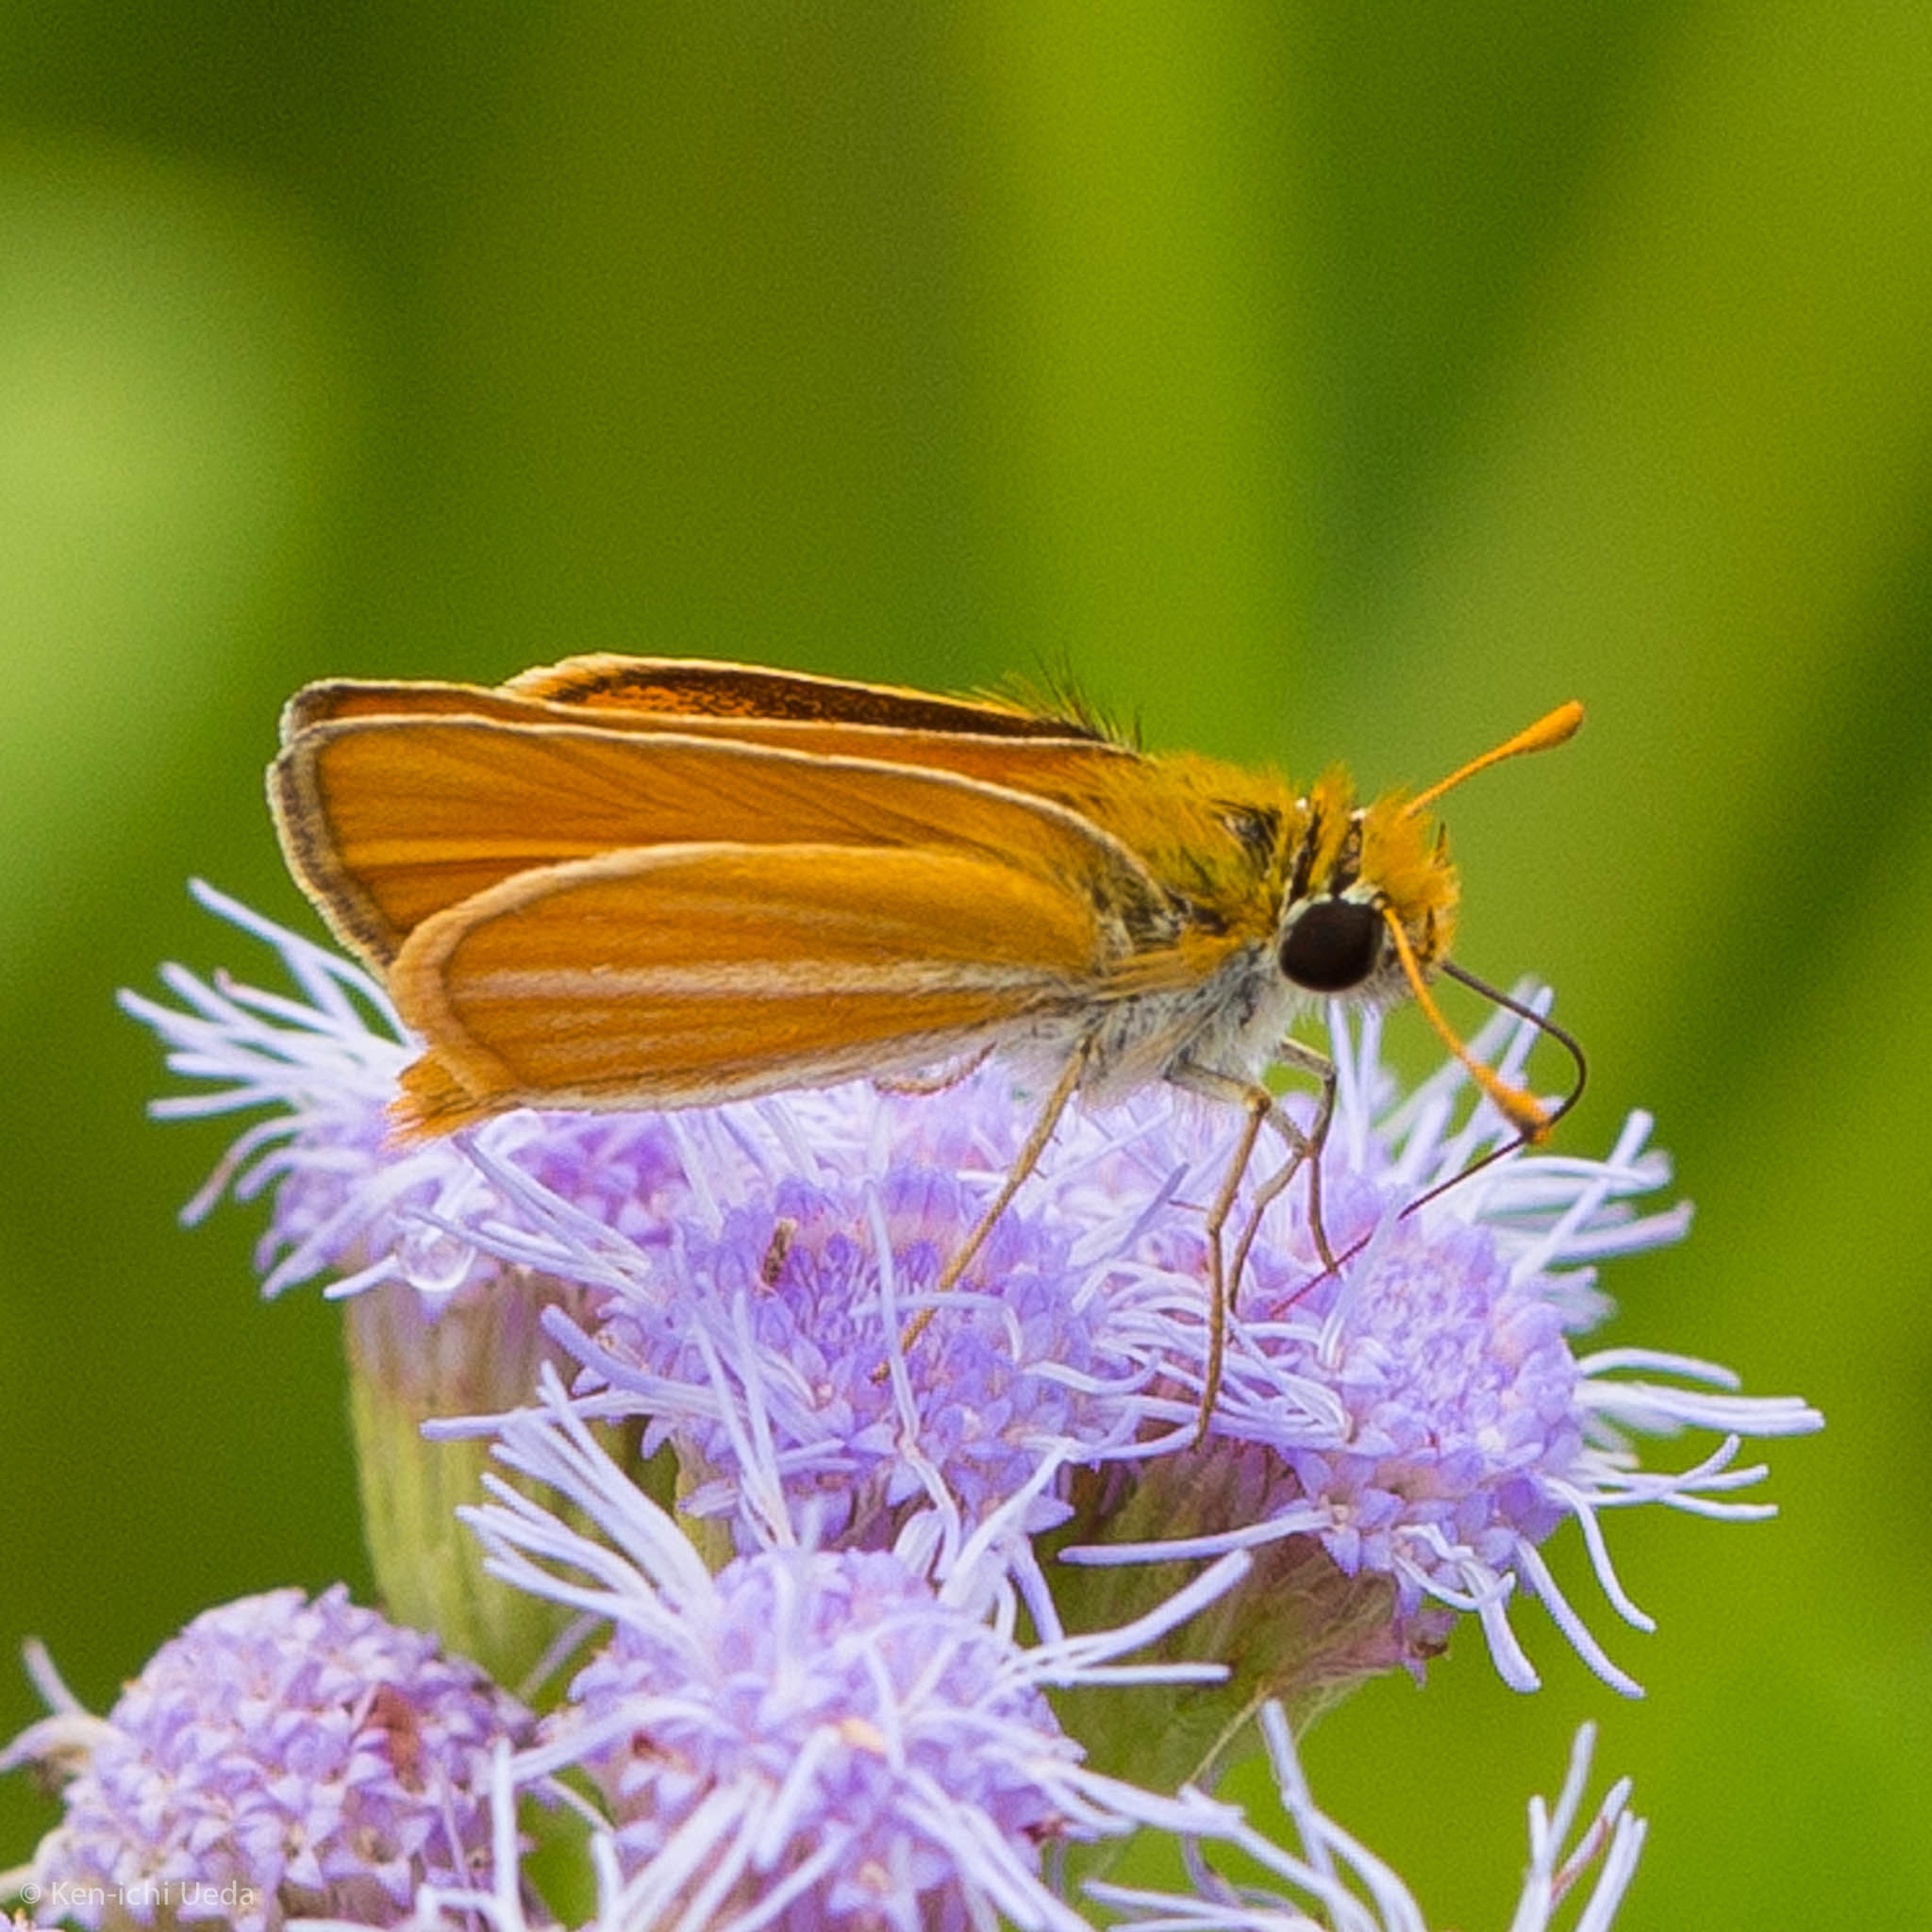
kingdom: Animalia
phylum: Arthropoda
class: Insecta
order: Lepidoptera
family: Hesperiidae
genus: Copaeodes
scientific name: Copaeodes minima
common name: Southern skipperling
